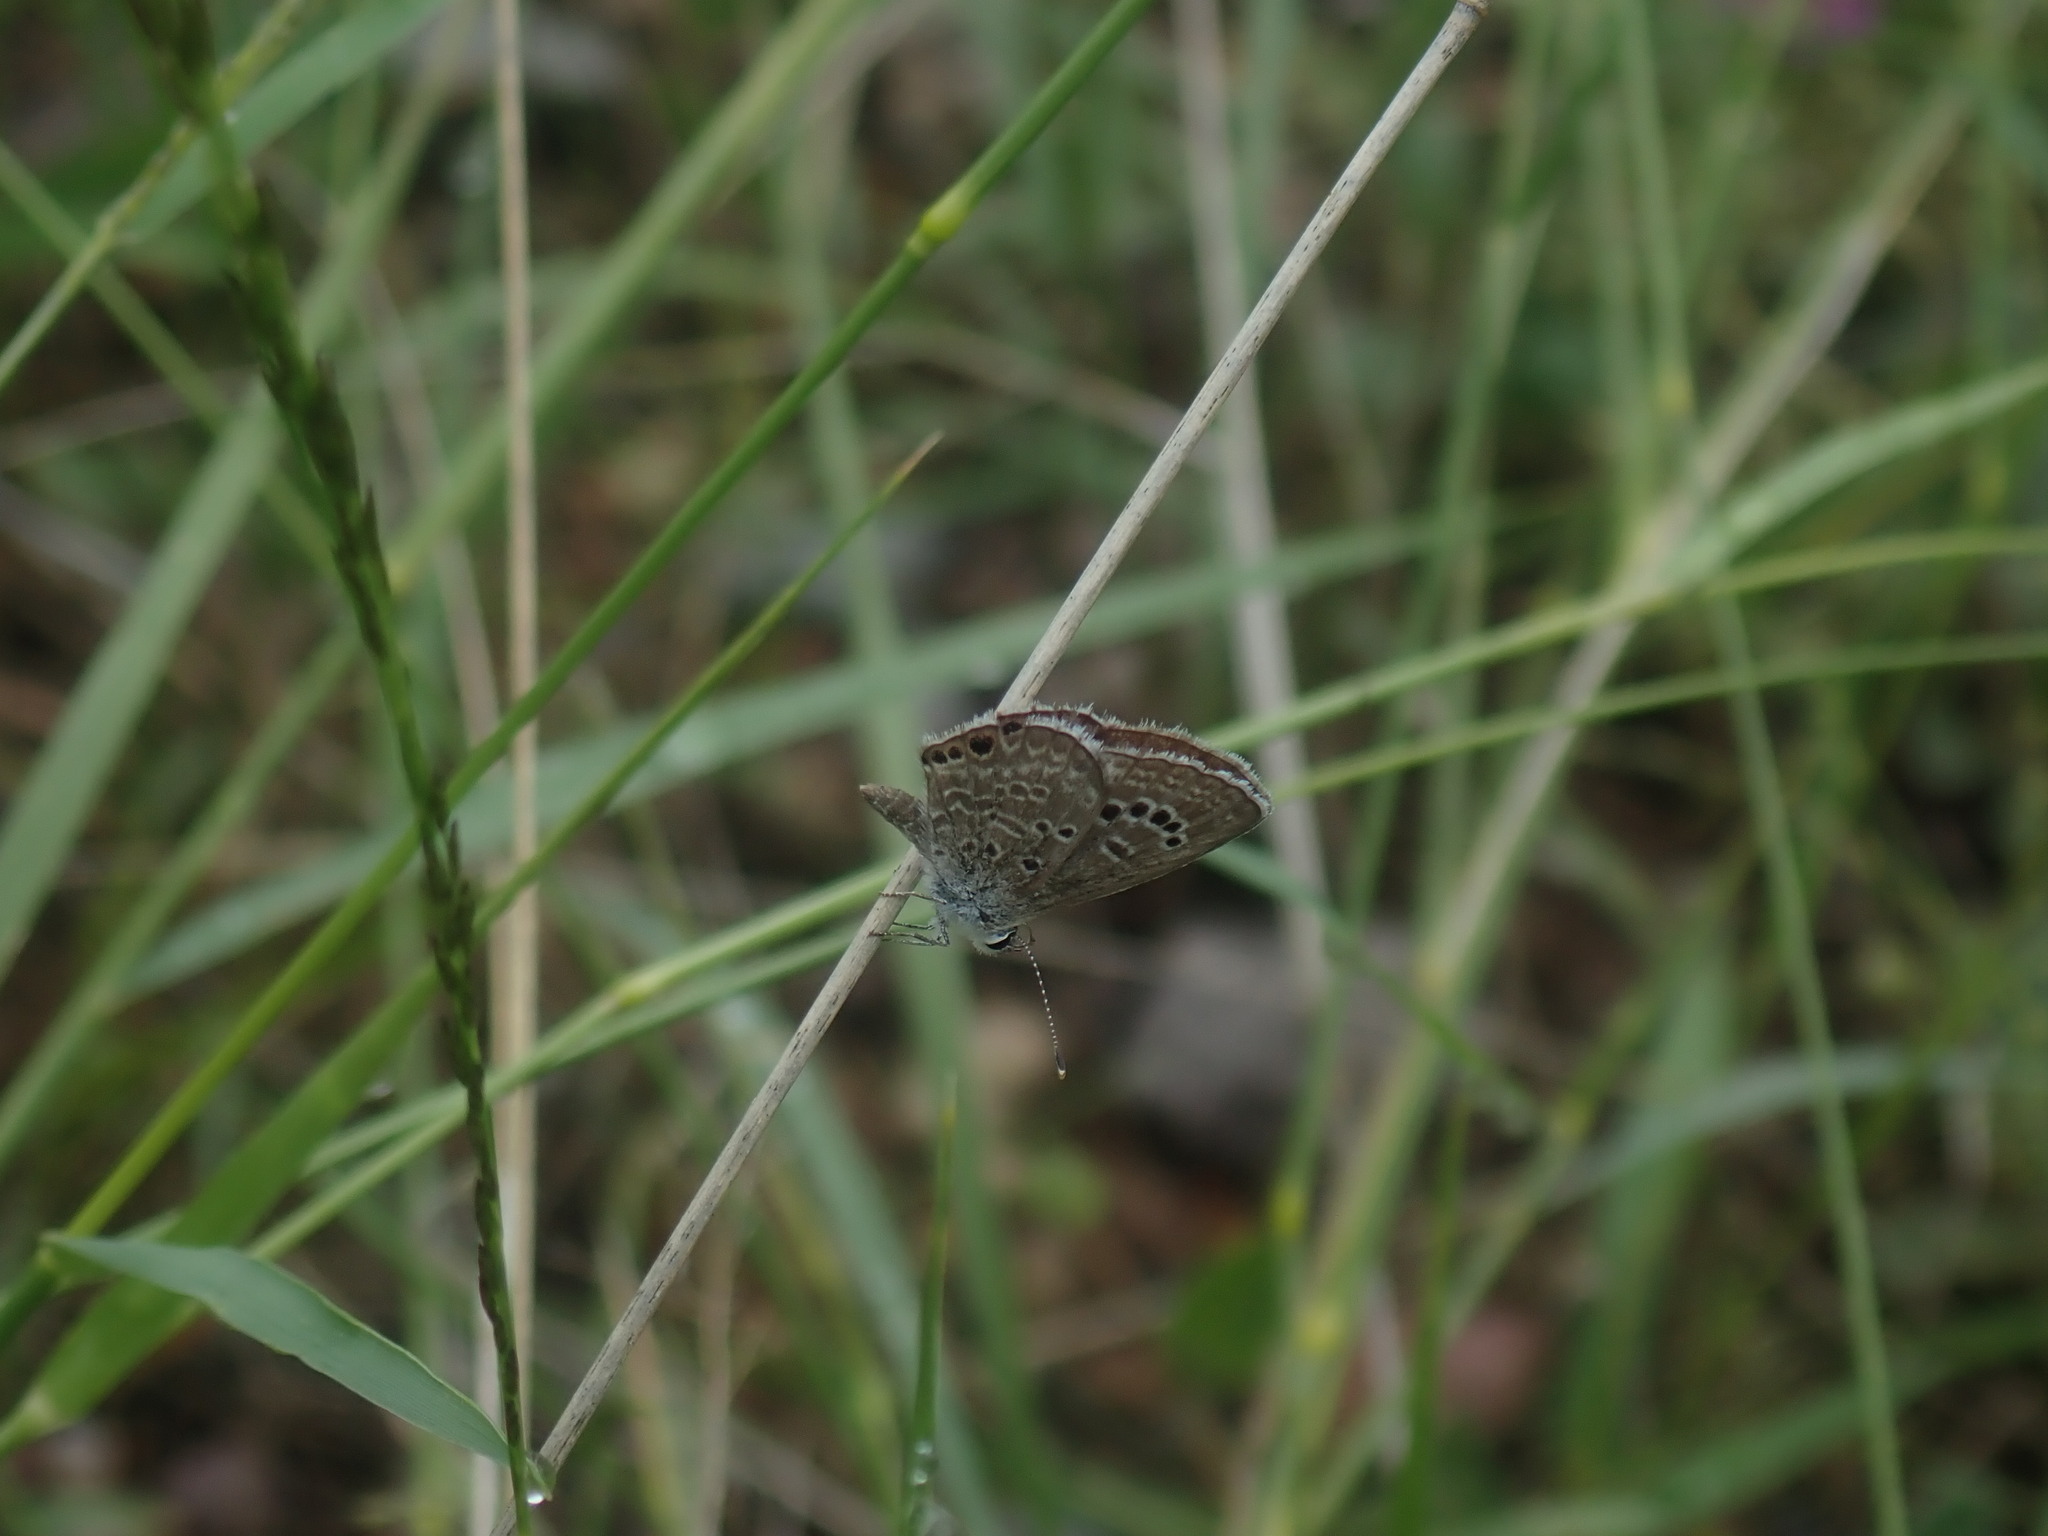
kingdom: Animalia
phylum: Arthropoda
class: Insecta
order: Lepidoptera
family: Lycaenidae
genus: Echinargus
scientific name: Echinargus isola
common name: Reakirt's blue
